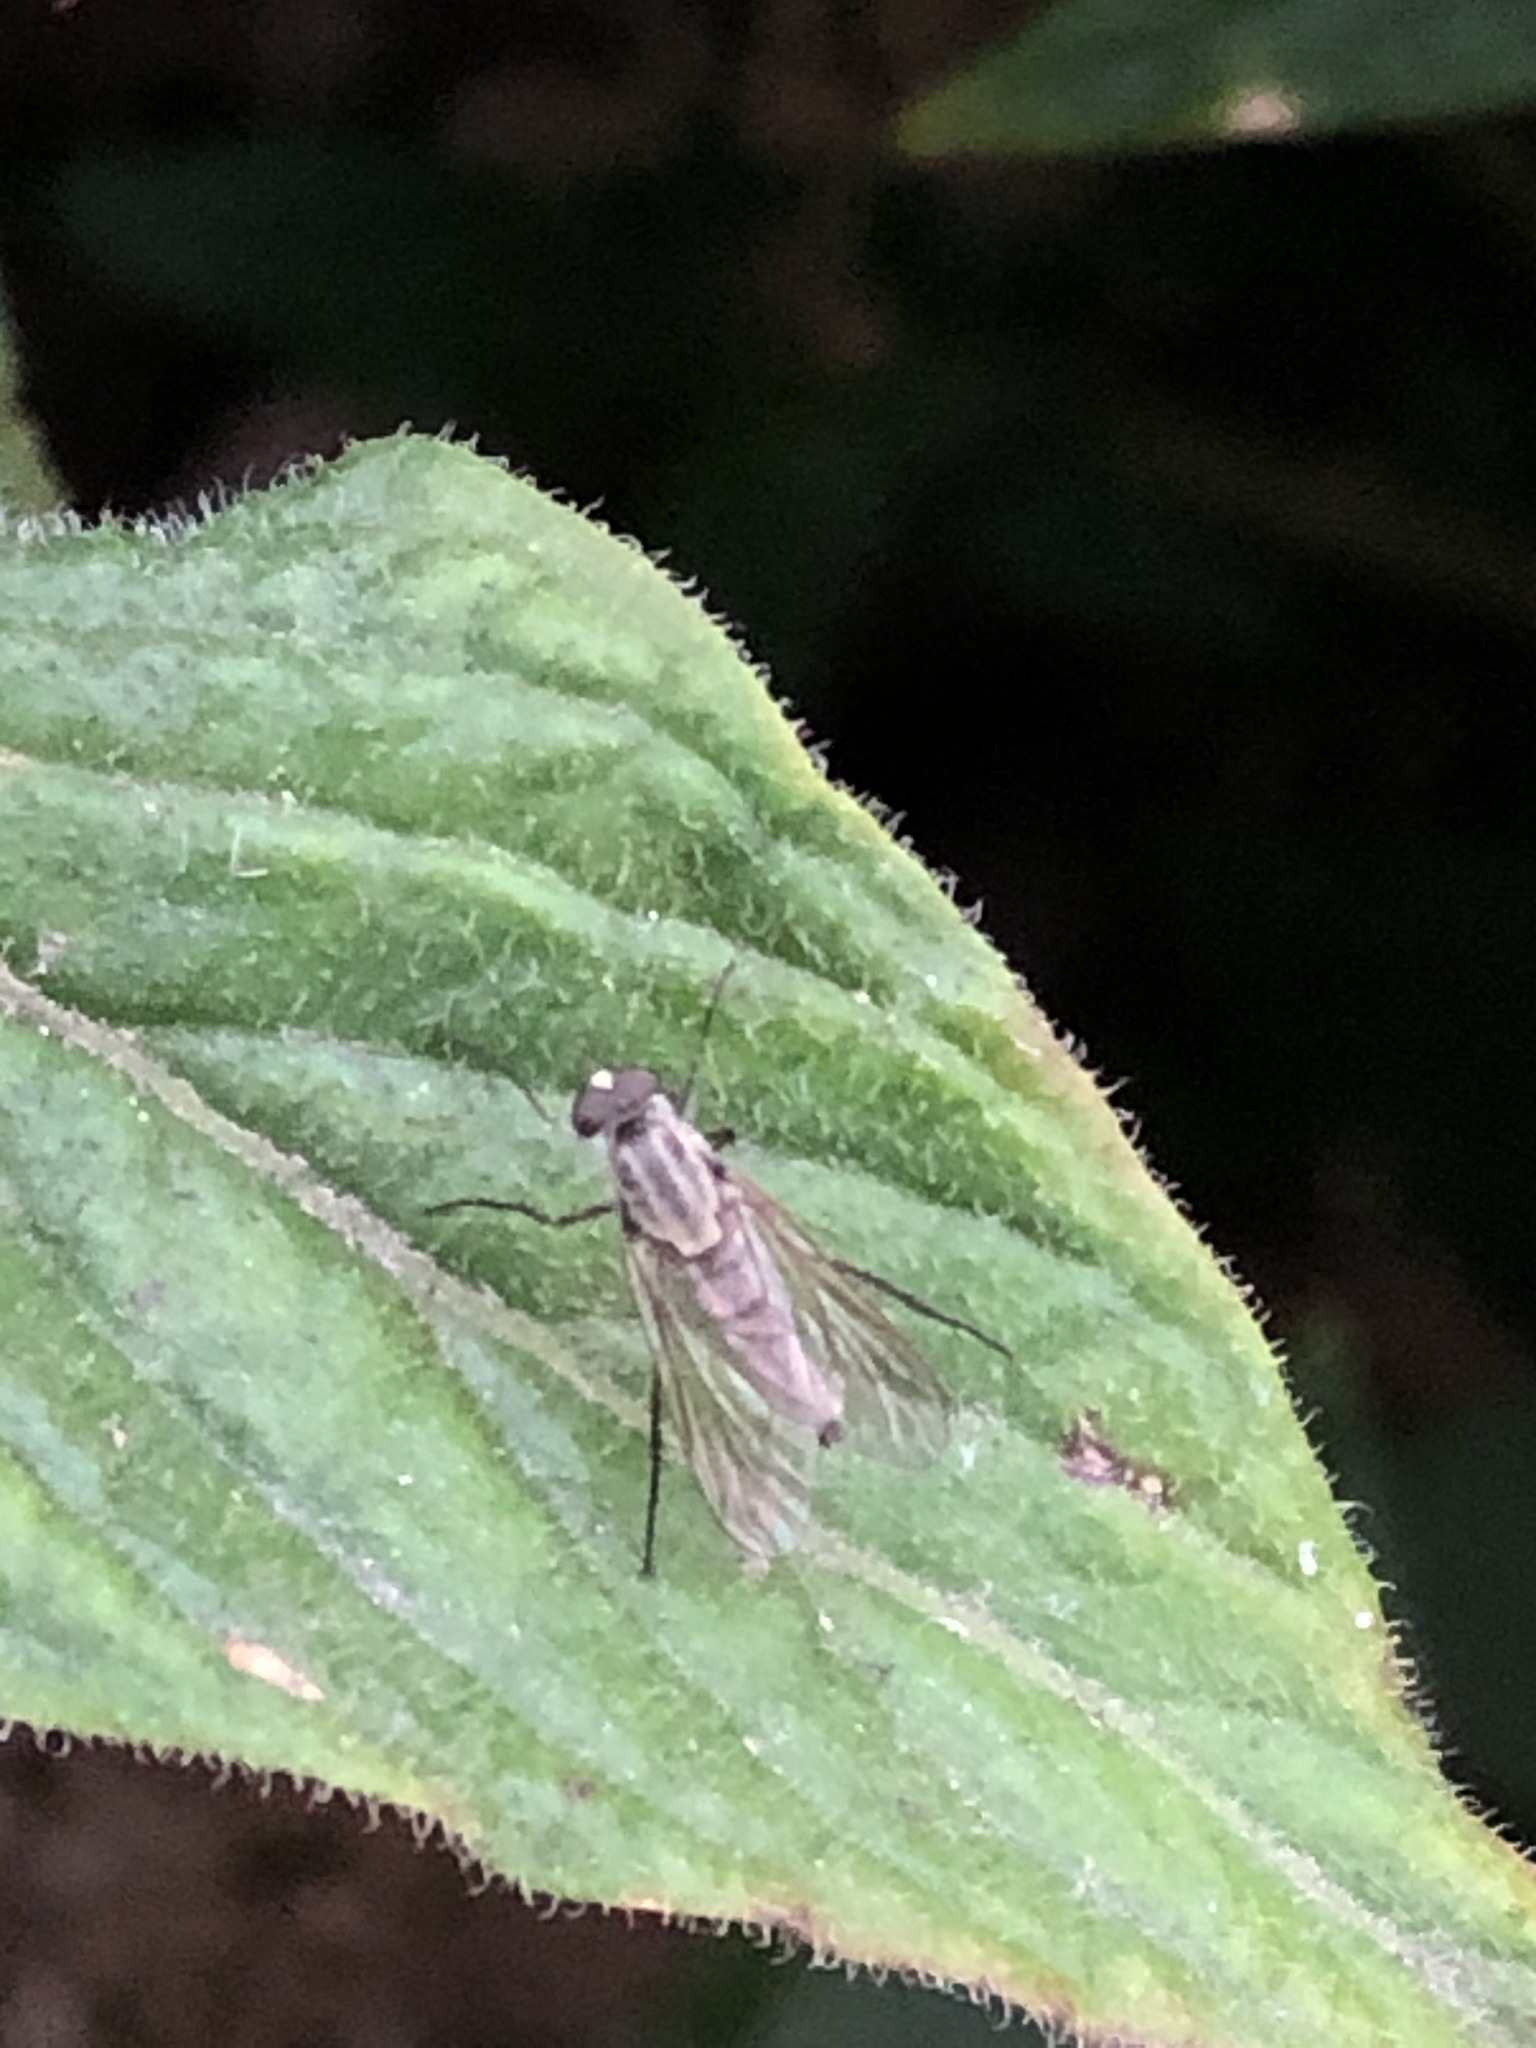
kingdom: Animalia
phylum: Arthropoda
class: Insecta
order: Diptera
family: Therevidae
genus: Penniverpa
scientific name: Penniverpa
